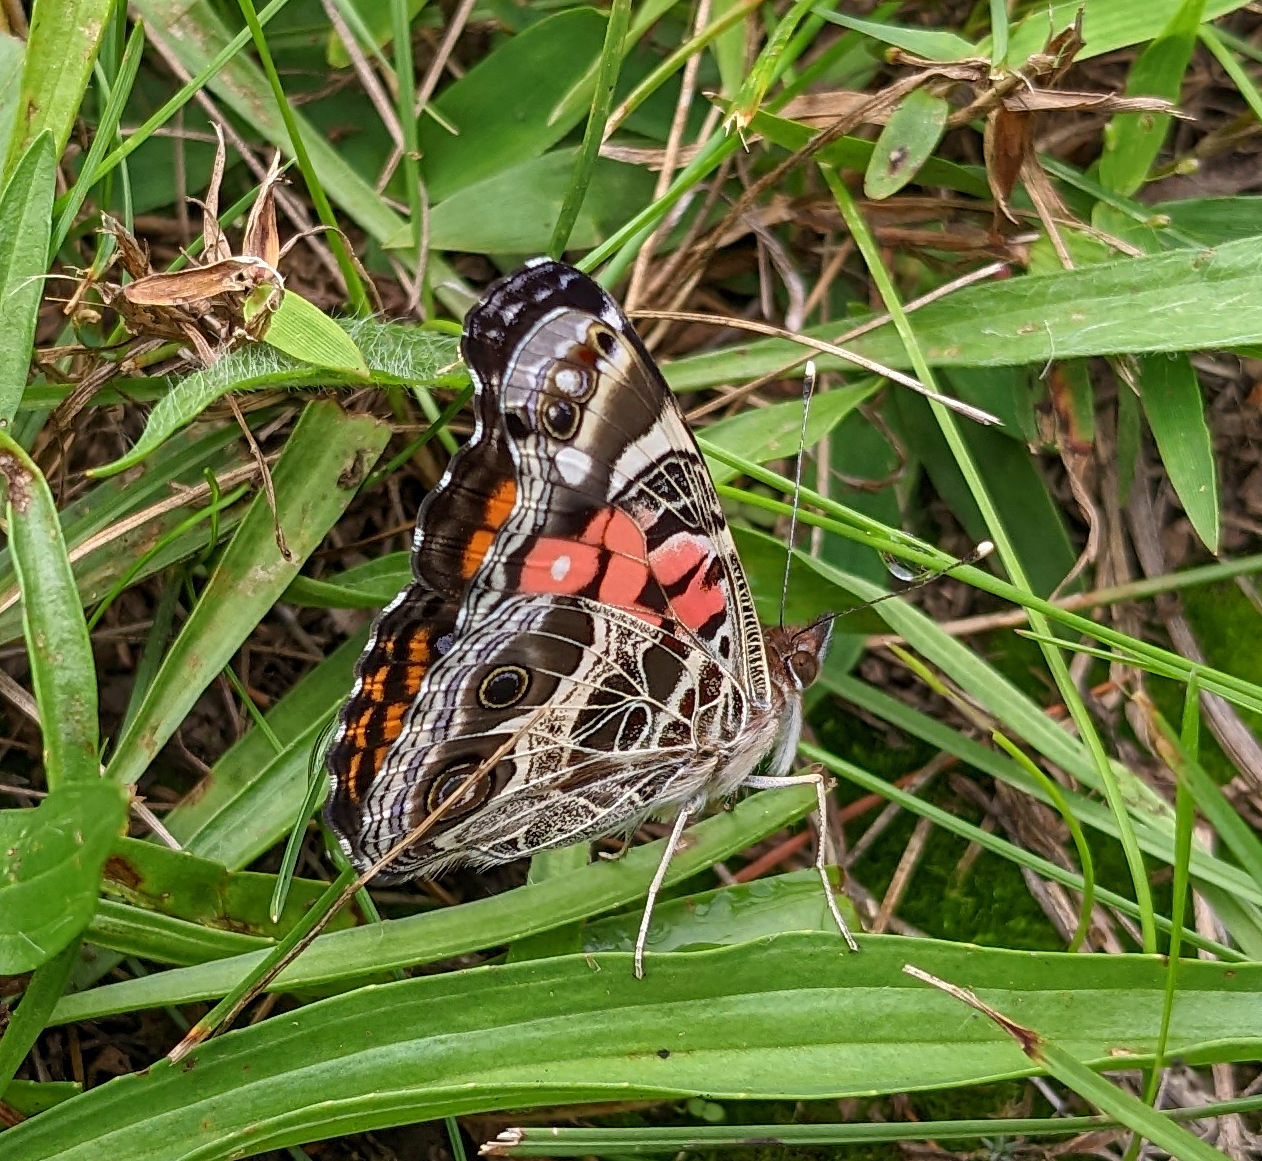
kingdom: Animalia
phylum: Arthropoda
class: Insecta
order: Lepidoptera
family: Nymphalidae
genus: Vanessa
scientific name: Vanessa virginiensis
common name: American lady
